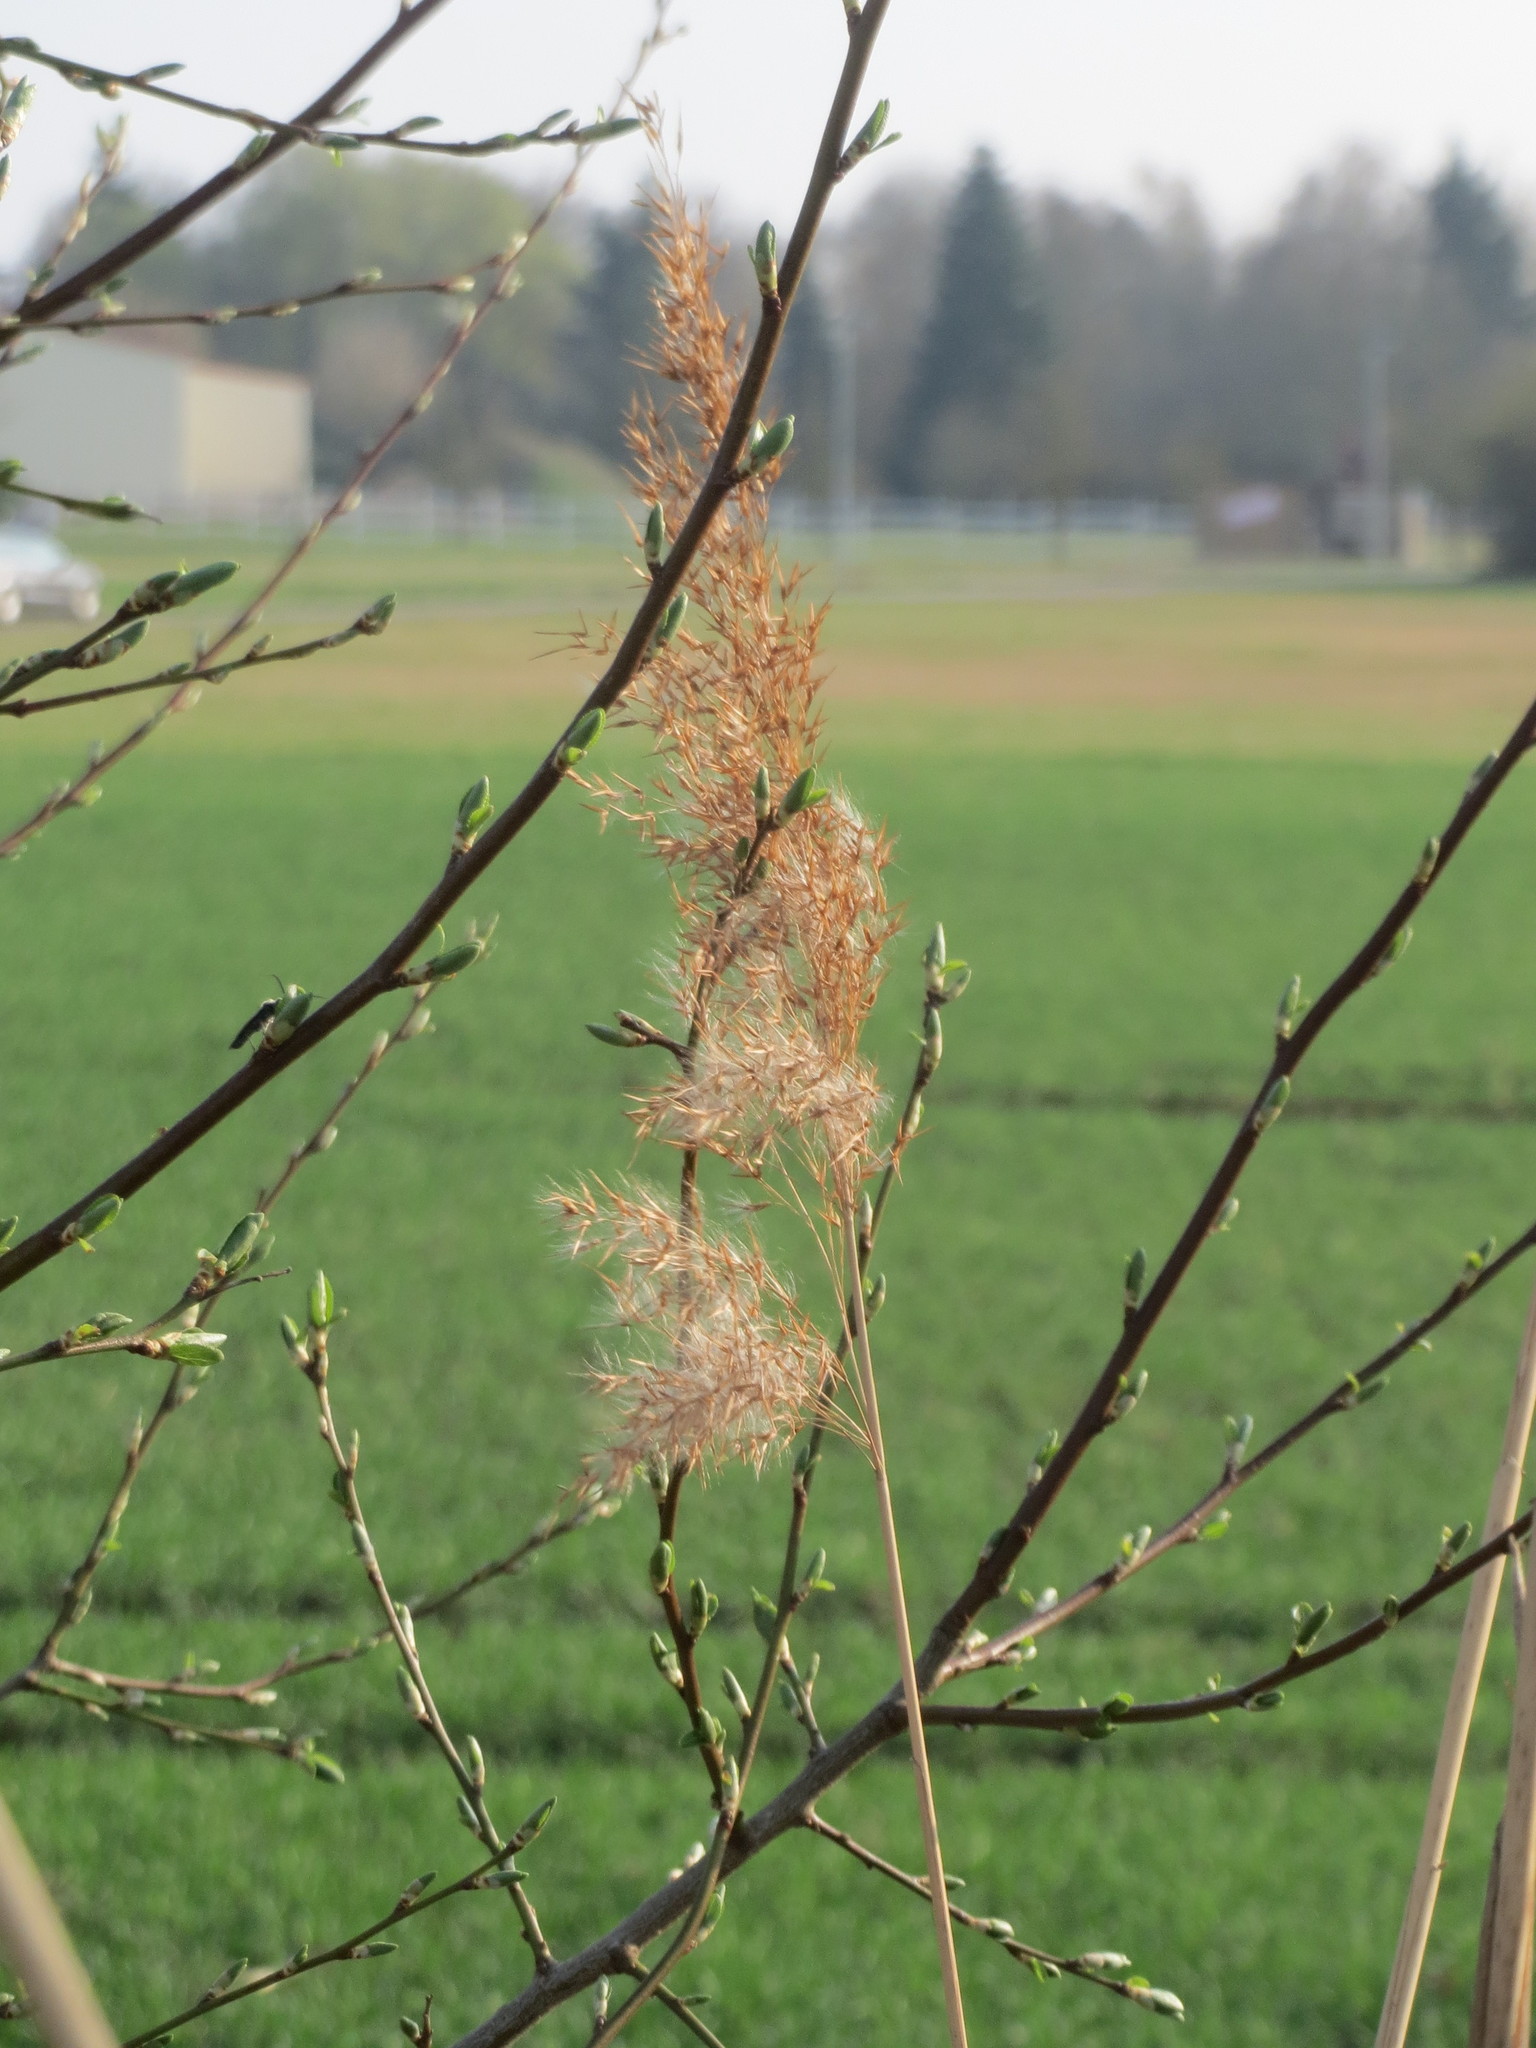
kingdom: Plantae
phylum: Tracheophyta
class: Liliopsida
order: Poales
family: Poaceae
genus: Phragmites
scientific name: Phragmites australis
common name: Common reed
